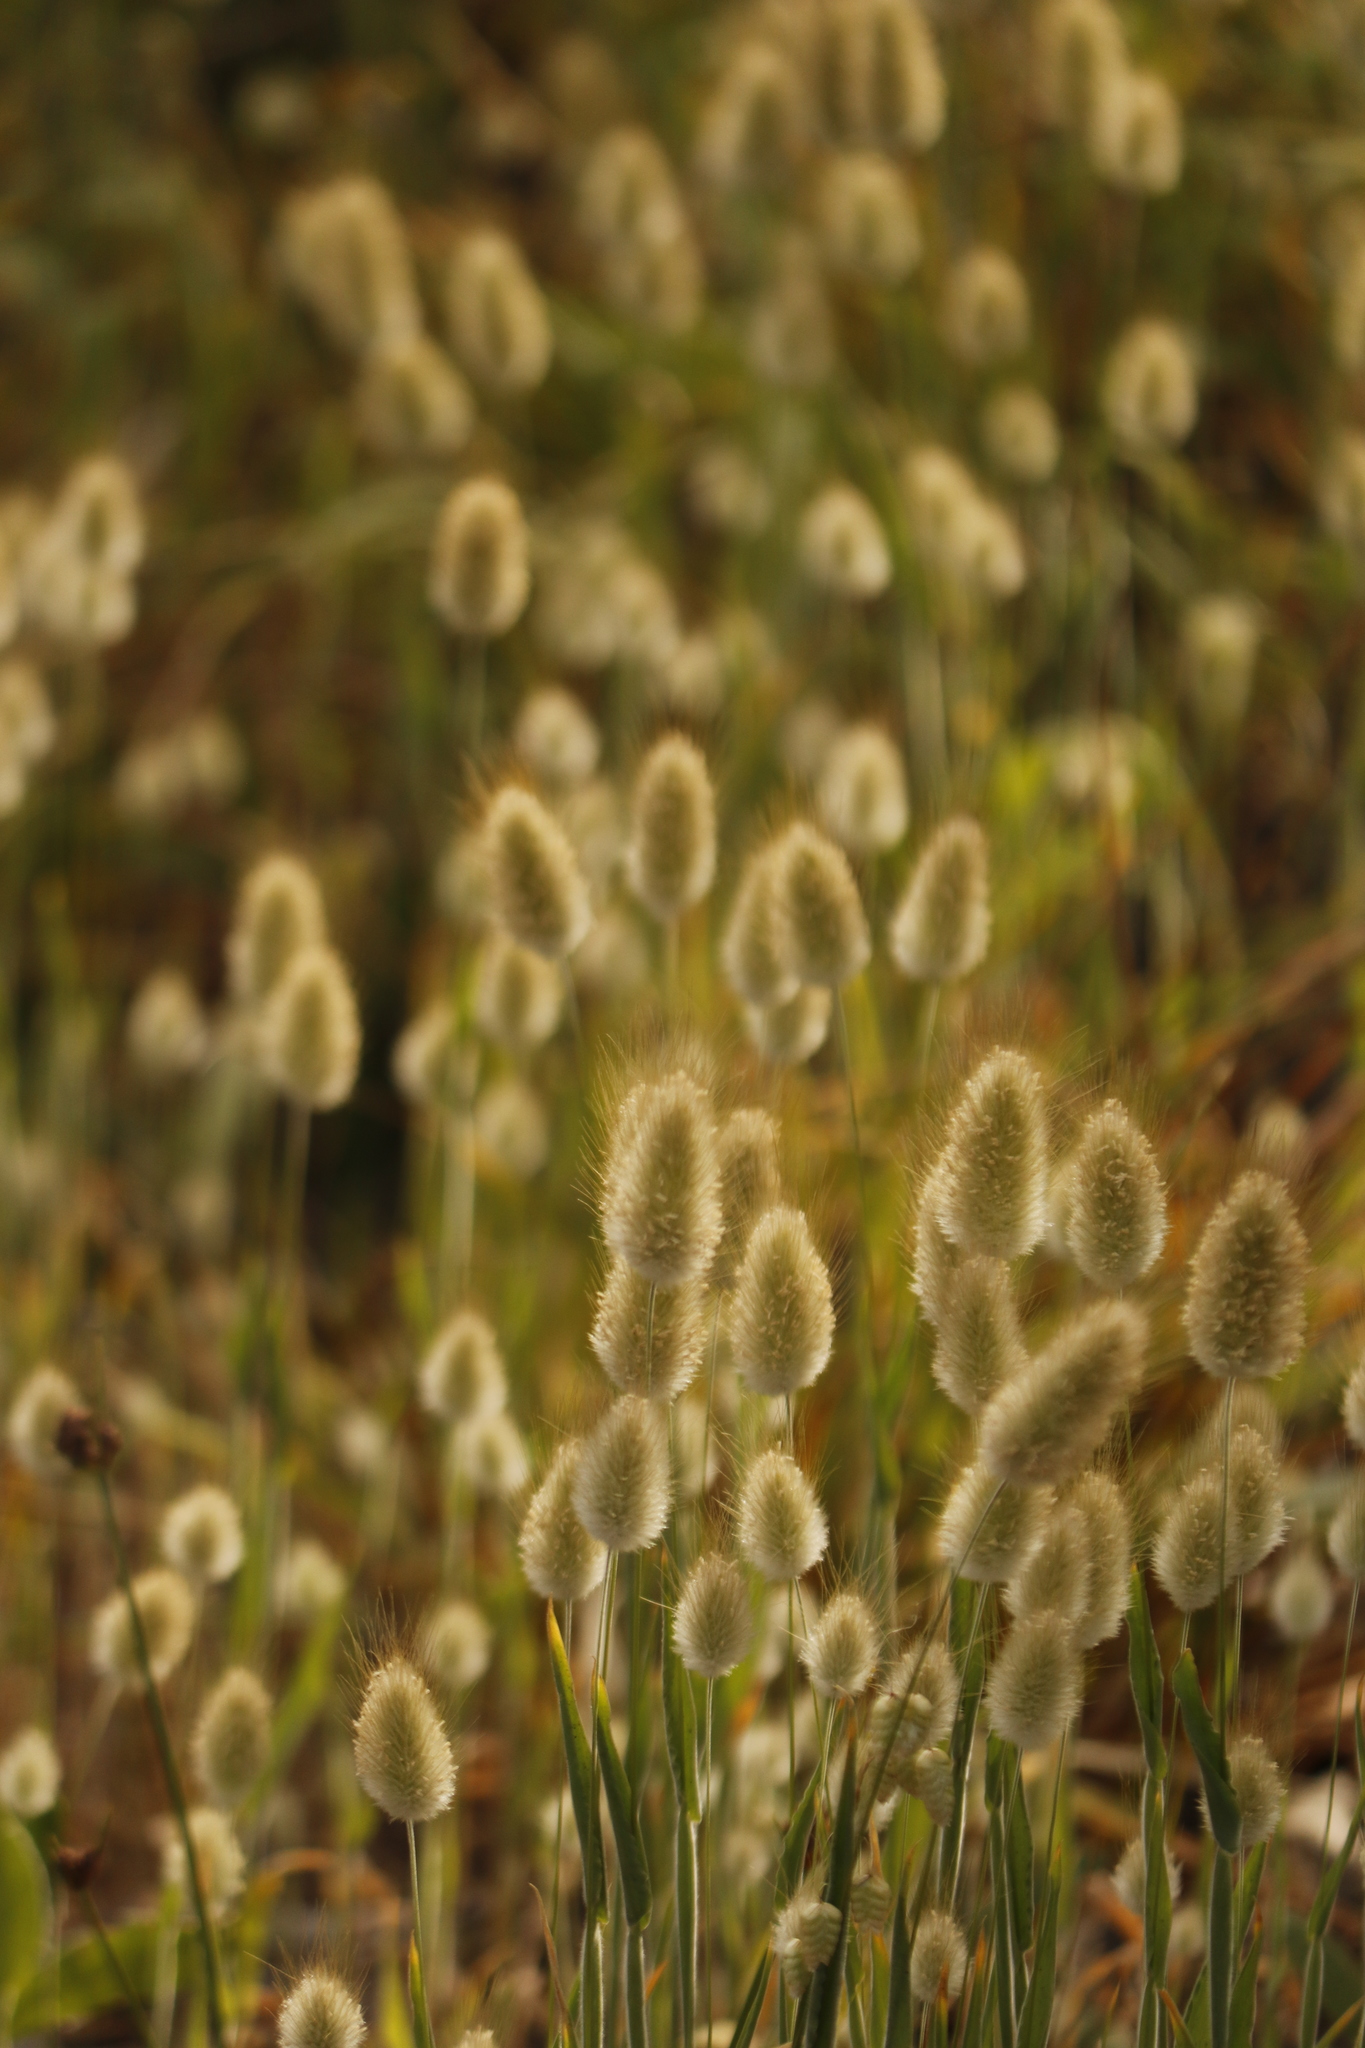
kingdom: Plantae
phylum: Tracheophyta
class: Liliopsida
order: Poales
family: Poaceae
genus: Lagurus
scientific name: Lagurus ovatus
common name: Hare's-tail
